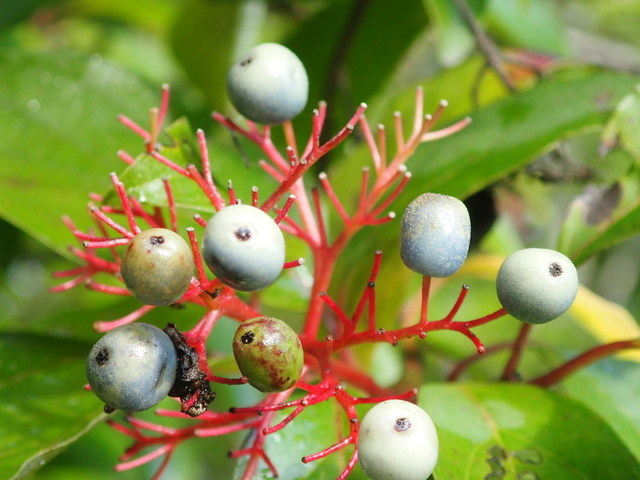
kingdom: Plantae
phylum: Tracheophyta
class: Magnoliopsida
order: Cornales
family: Cornaceae
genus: Cornus
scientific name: Cornus foemina
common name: Swamp dogwood
